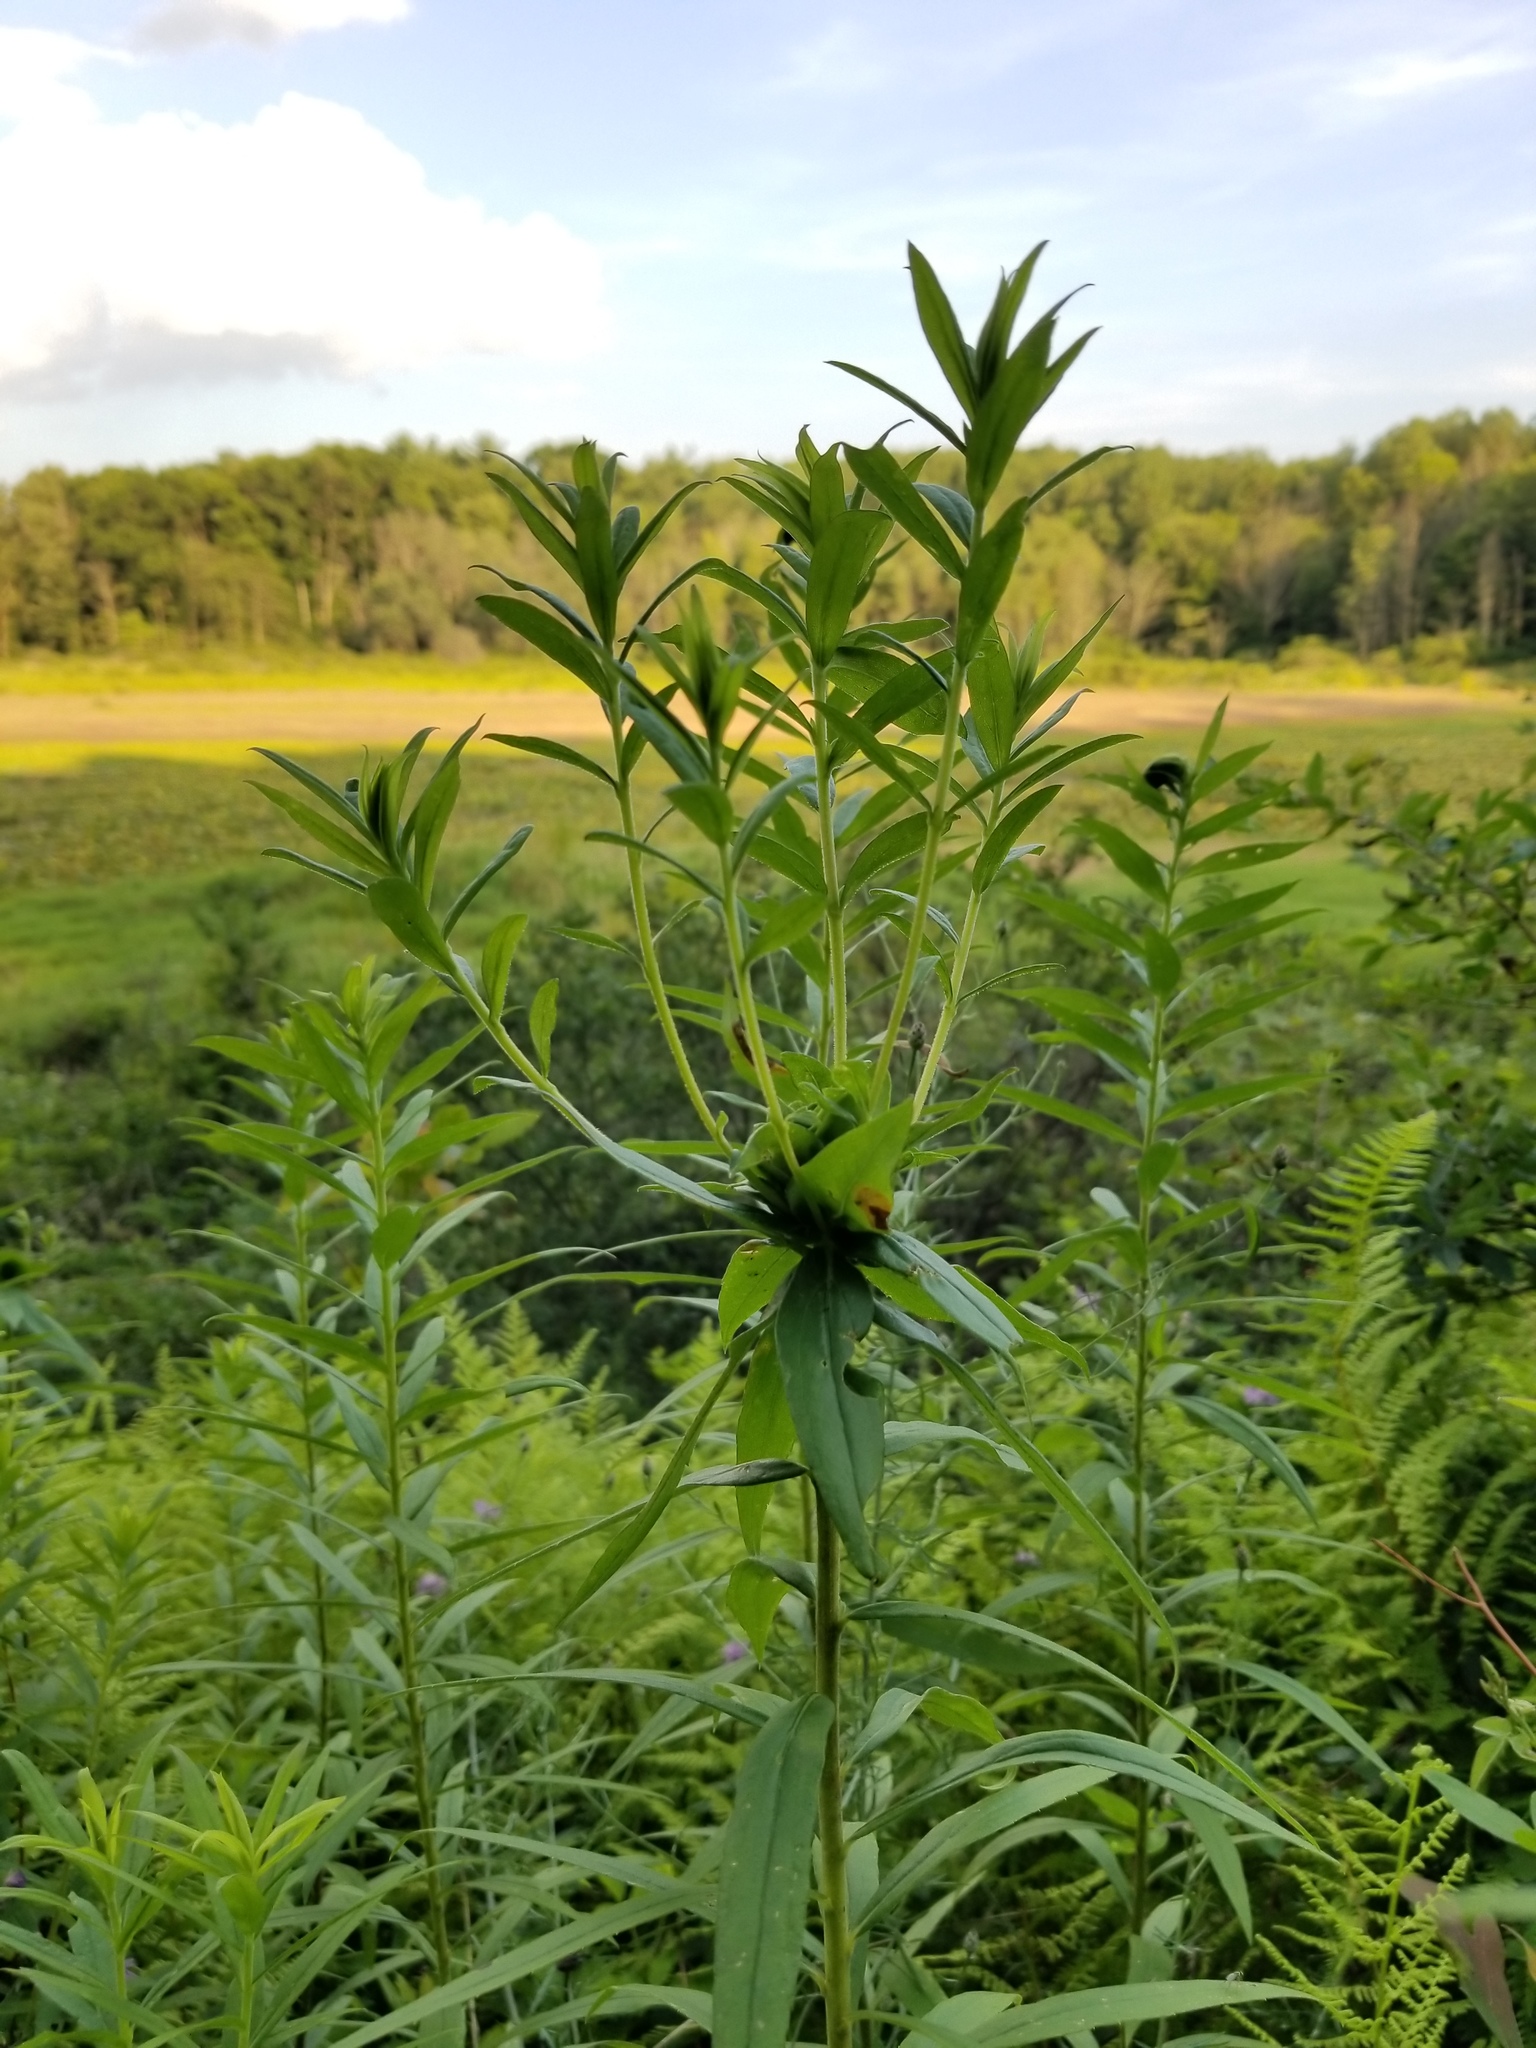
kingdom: Animalia
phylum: Arthropoda
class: Insecta
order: Diptera
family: Cecidomyiidae
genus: Rhopalomyia
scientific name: Rhopalomyia solidaginis
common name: Goldenrod bunch gall midge
